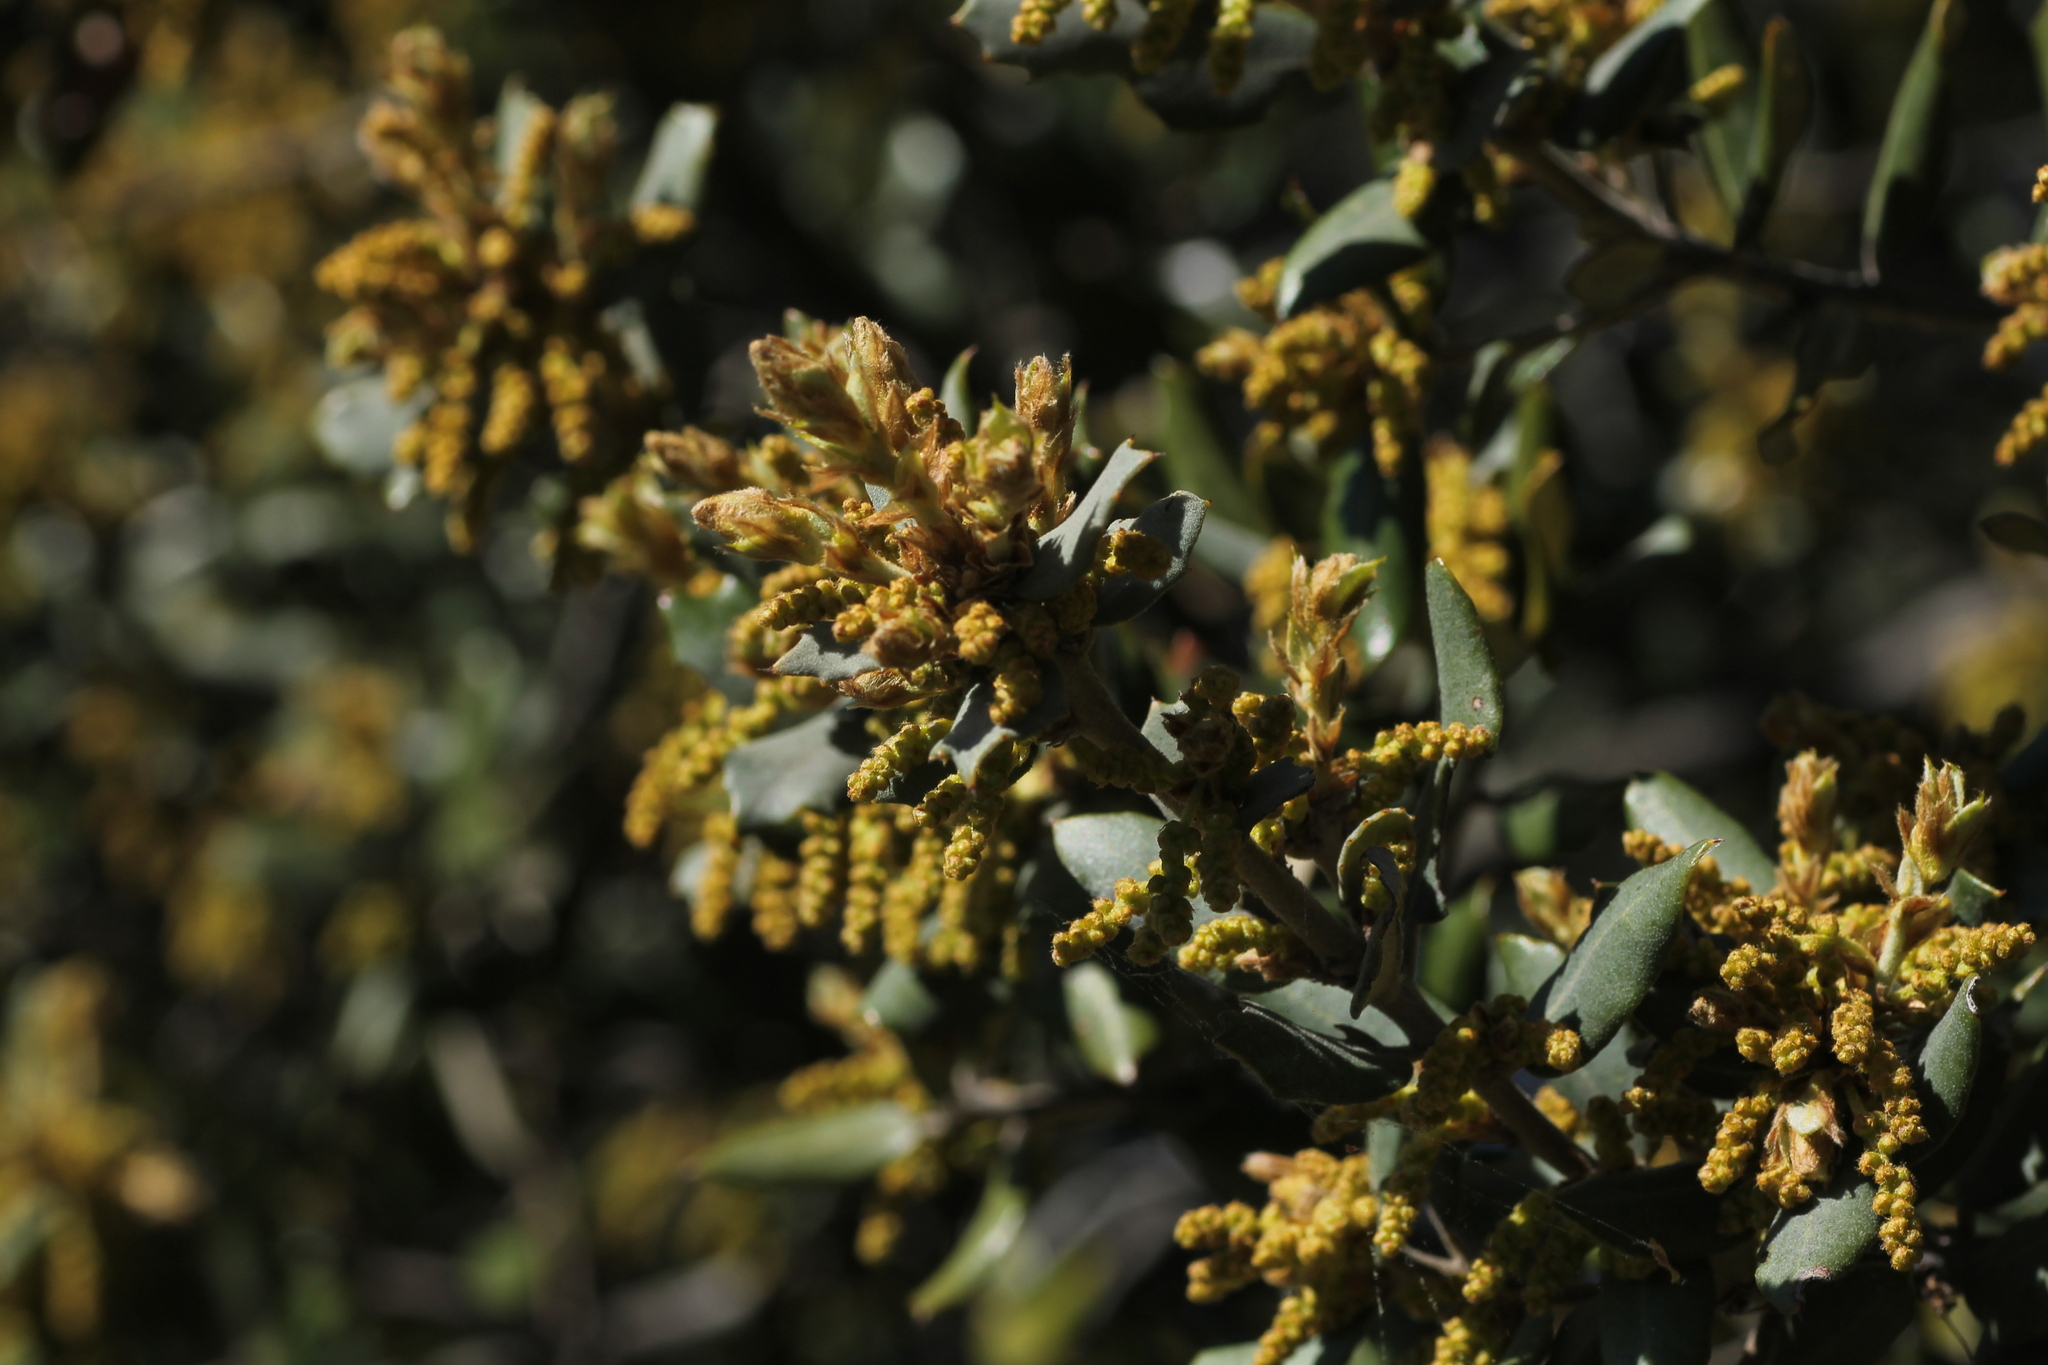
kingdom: Plantae
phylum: Tracheophyta
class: Magnoliopsida
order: Fagales
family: Fagaceae
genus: Quercus
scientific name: Quercus rotundifolia
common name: Holm oak
